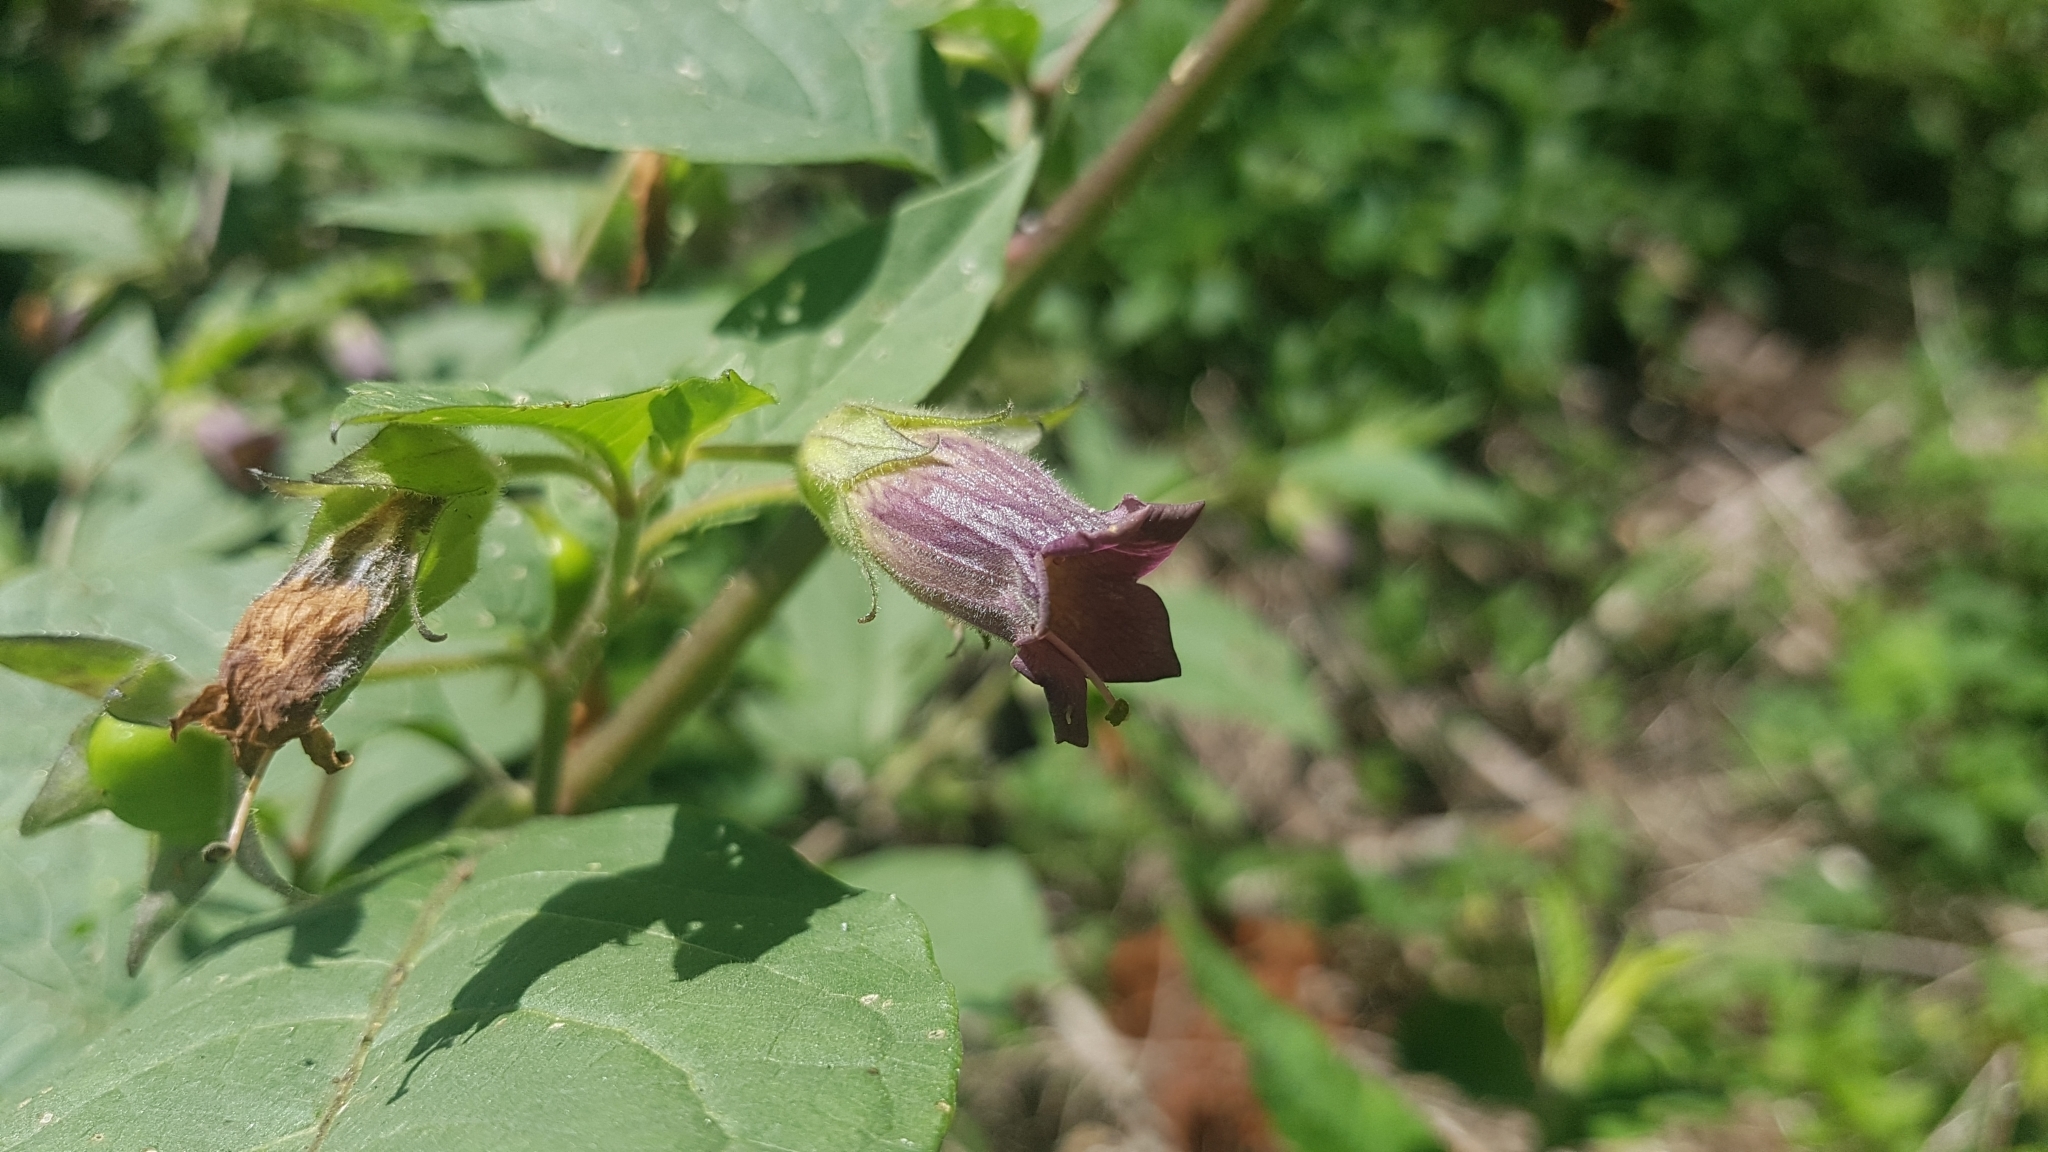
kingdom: Plantae
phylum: Tracheophyta
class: Magnoliopsida
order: Solanales
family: Solanaceae
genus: Atropa
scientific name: Atropa belladonna
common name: Deadly nightshade
